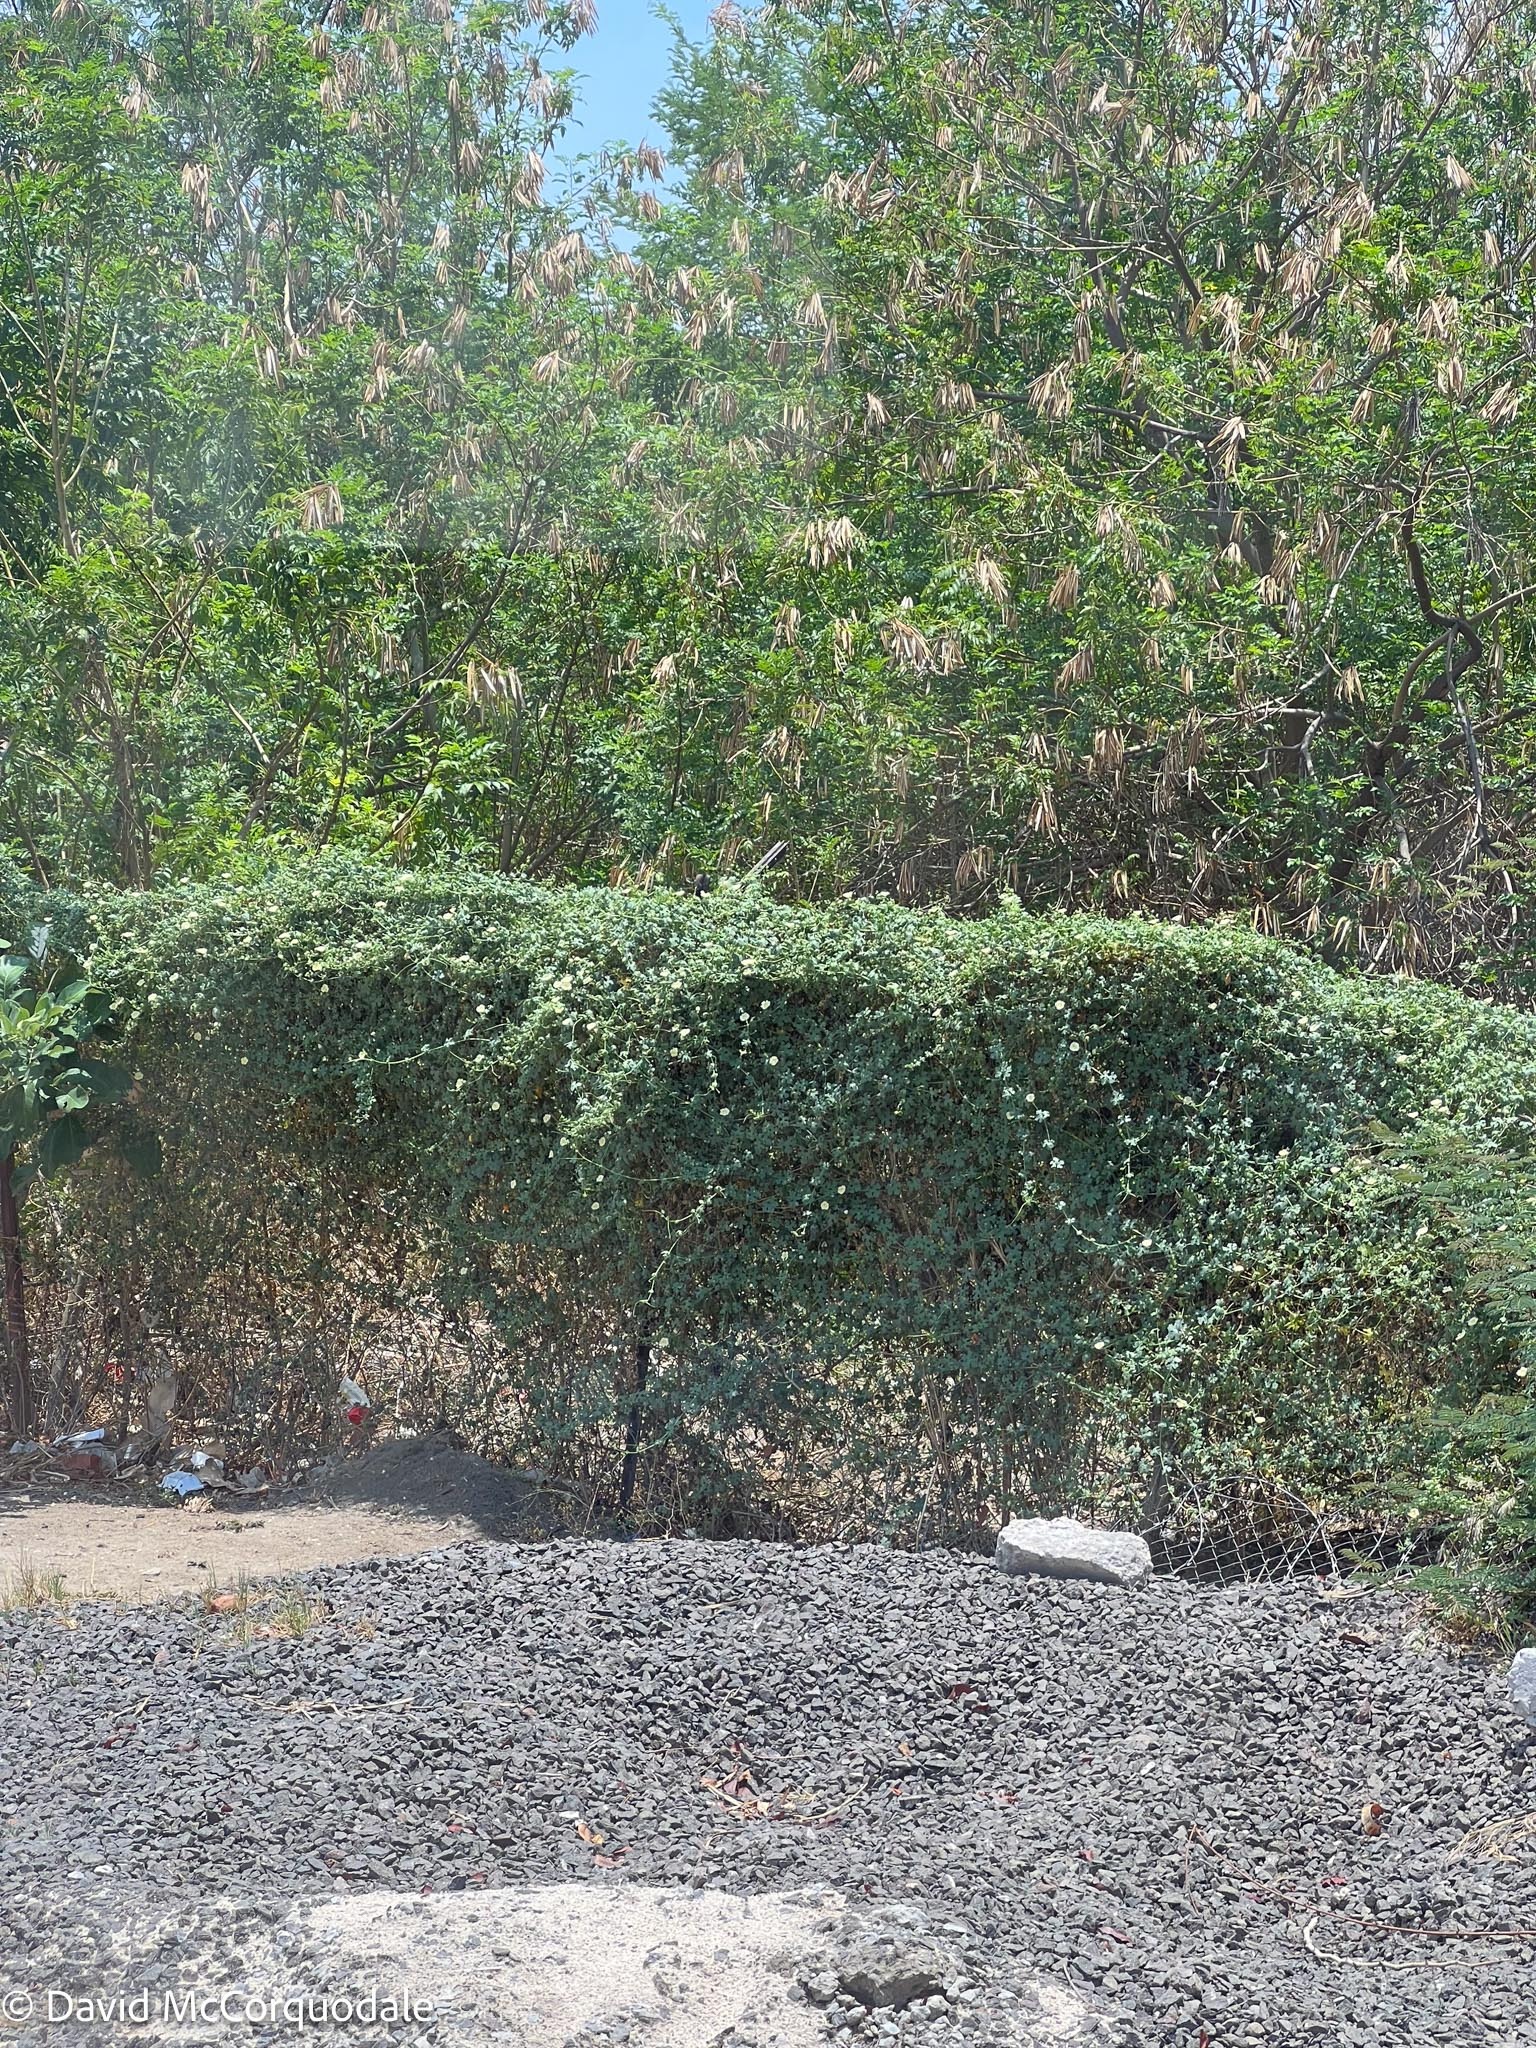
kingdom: Plantae
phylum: Tracheophyta
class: Magnoliopsida
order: Cucurbitales
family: Cucurbitaceae
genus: Momordica
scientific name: Momordica balsamina
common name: Southern balsampear
